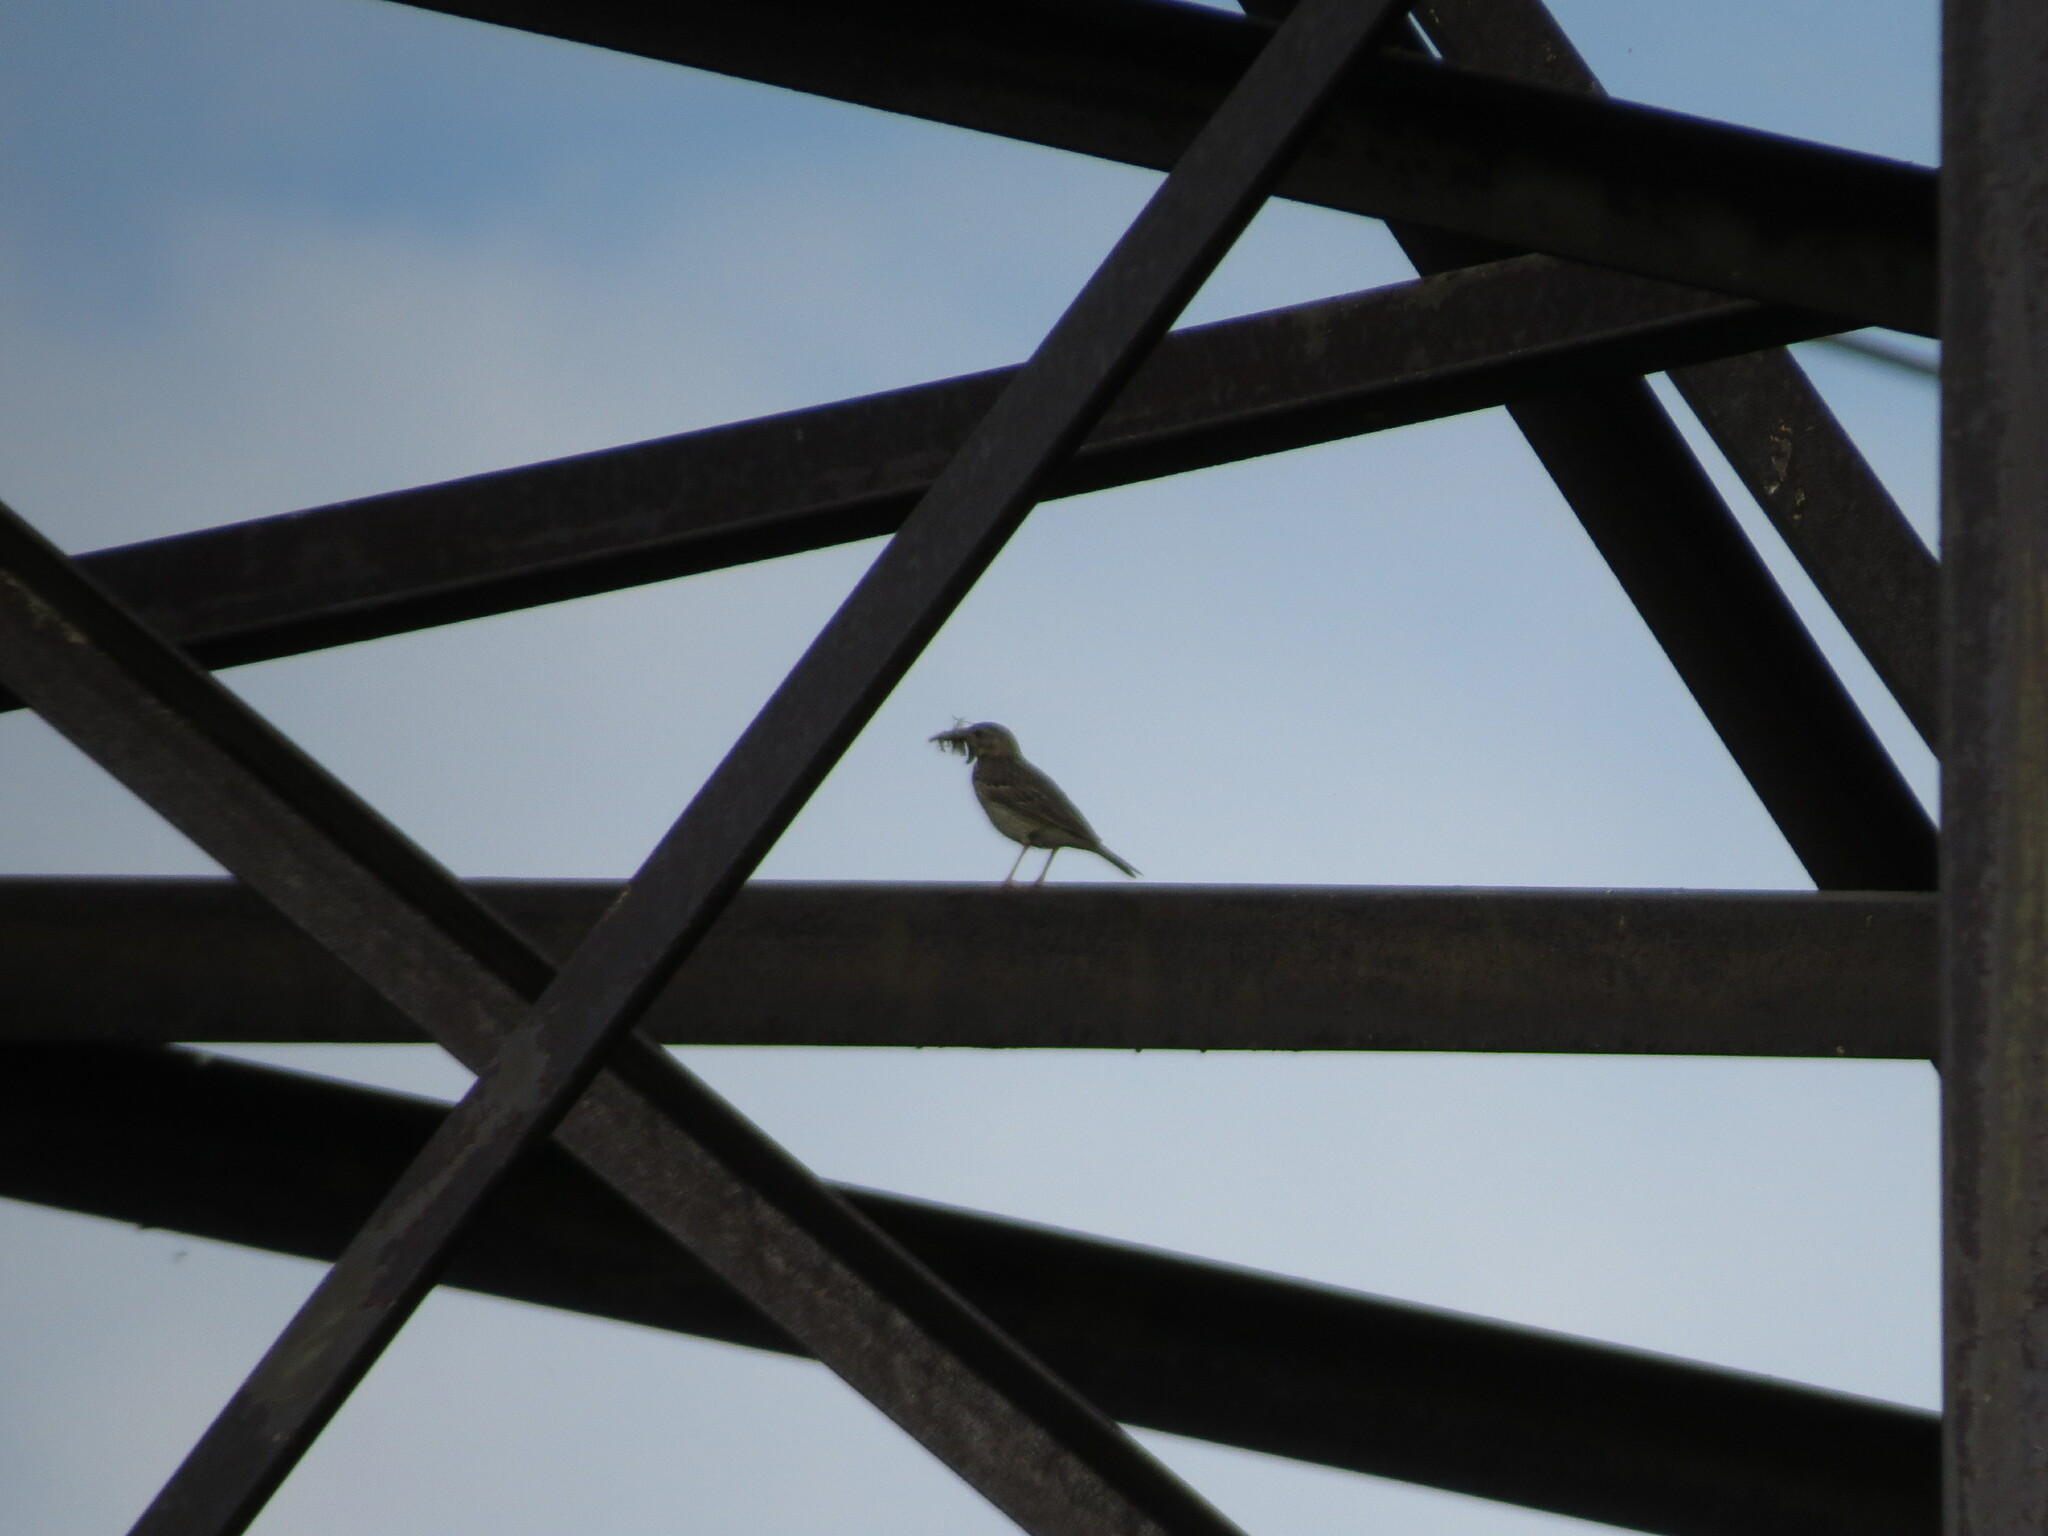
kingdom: Animalia
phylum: Chordata
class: Aves
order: Passeriformes
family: Motacillidae
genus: Anthus
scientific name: Anthus trivialis
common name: Tree pipit
